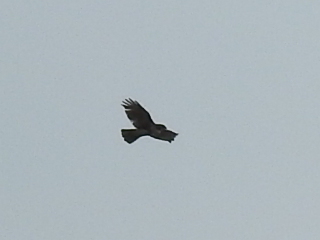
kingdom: Animalia
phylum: Chordata
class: Aves
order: Accipitriformes
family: Accipitridae
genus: Buteo
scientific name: Buteo jamaicensis
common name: Red-tailed hawk
